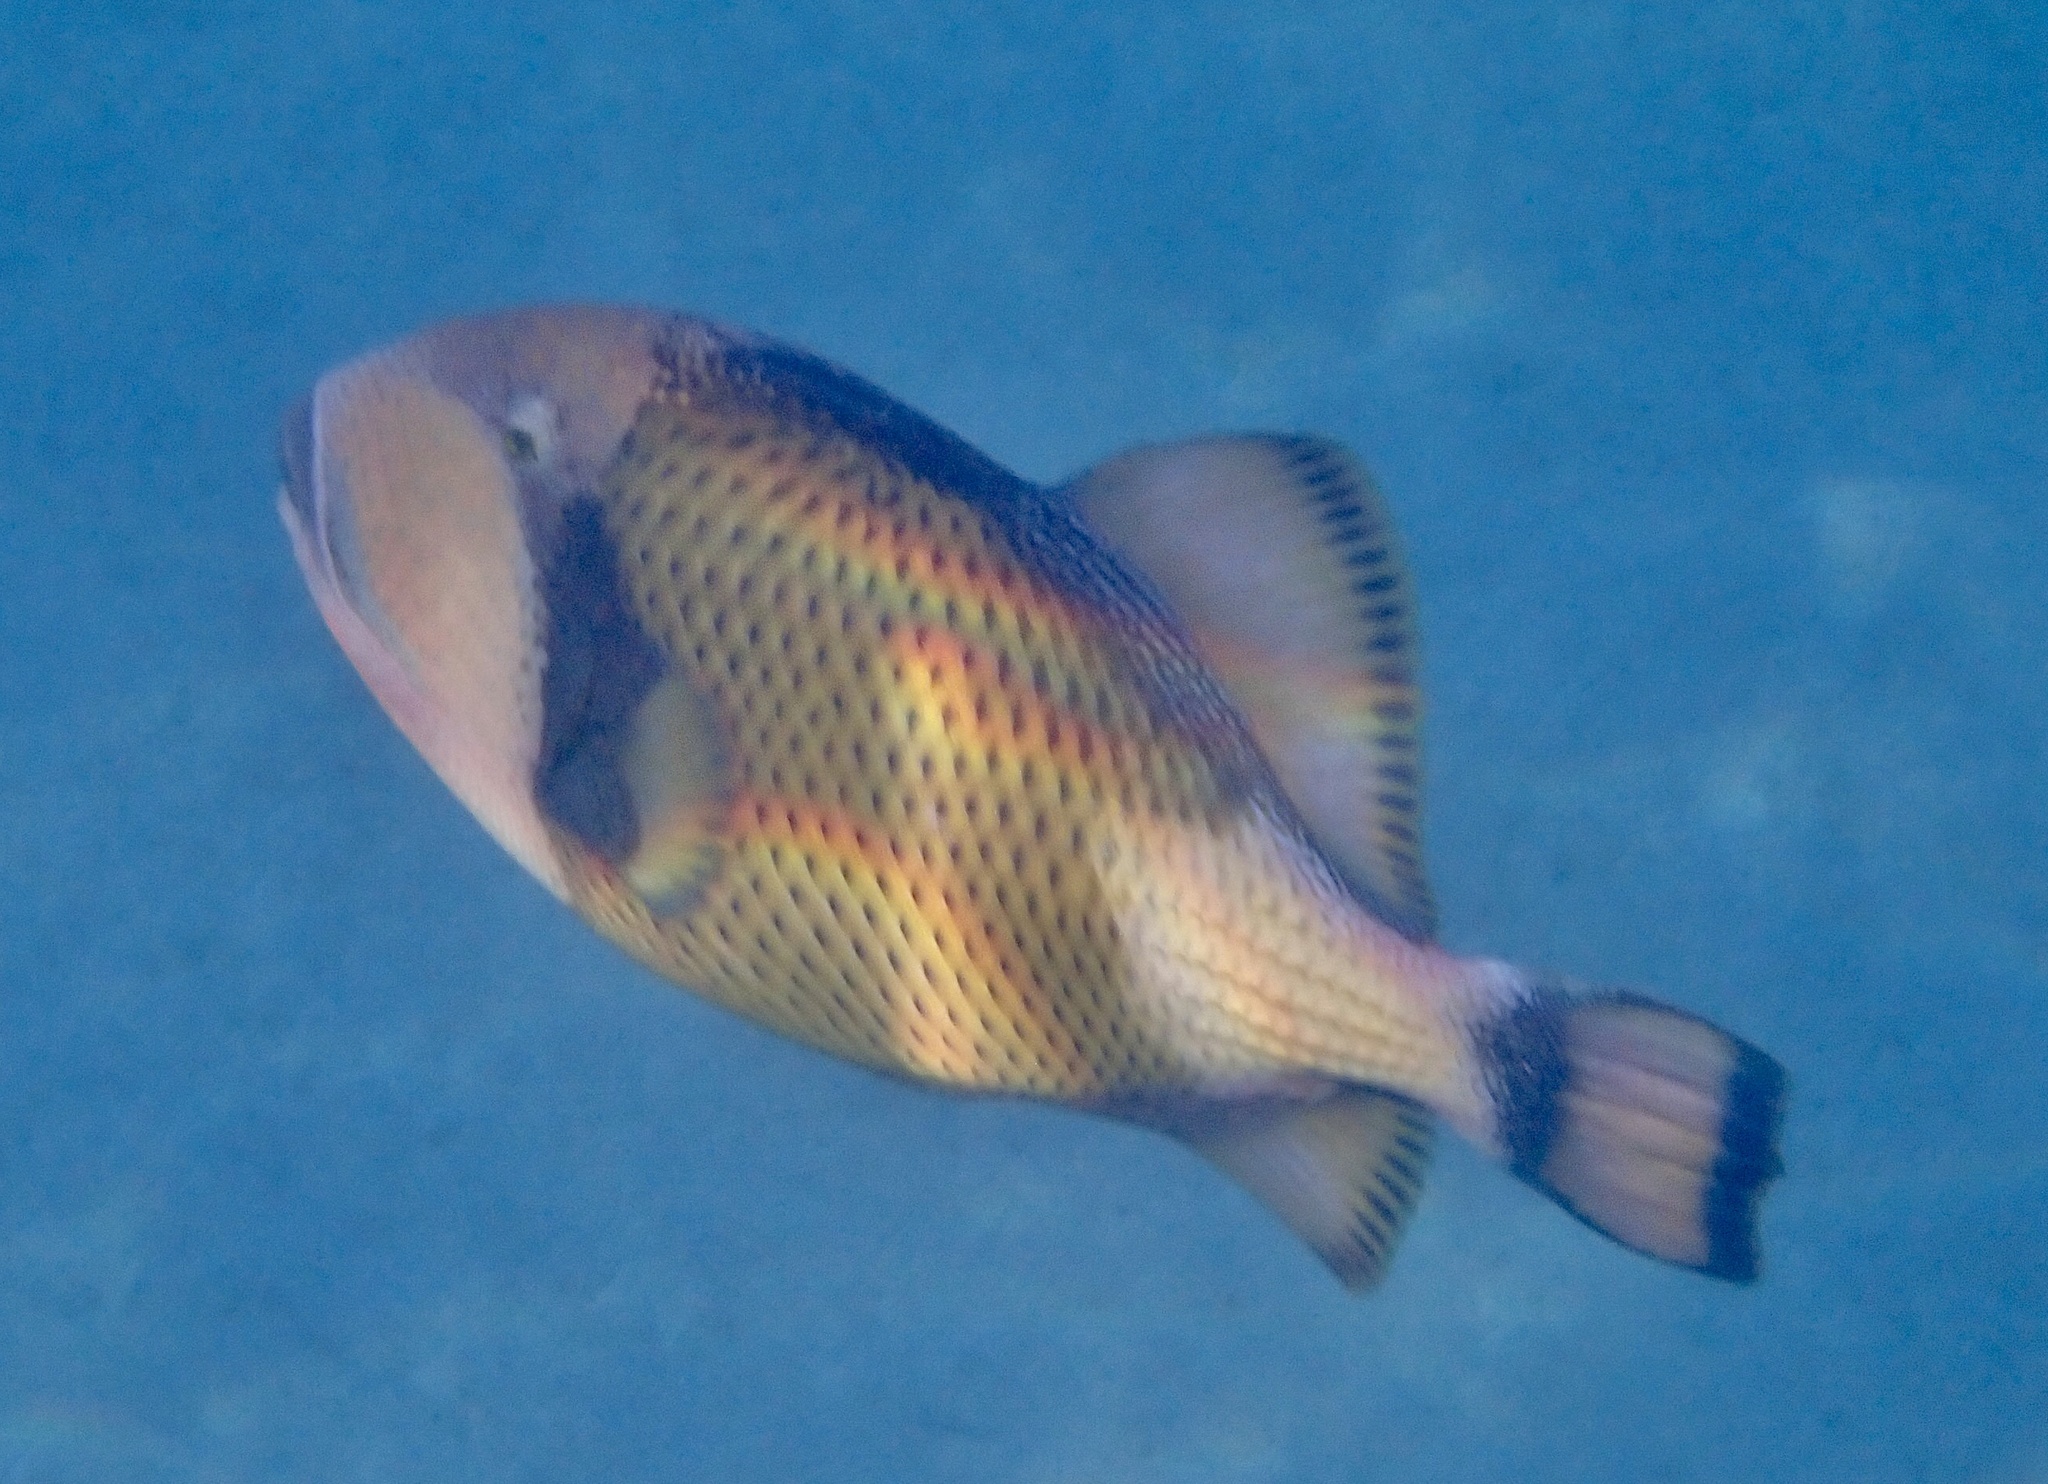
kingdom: Animalia
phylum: Chordata
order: Tetraodontiformes
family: Balistidae
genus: Balistoides
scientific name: Balistoides viridescens
